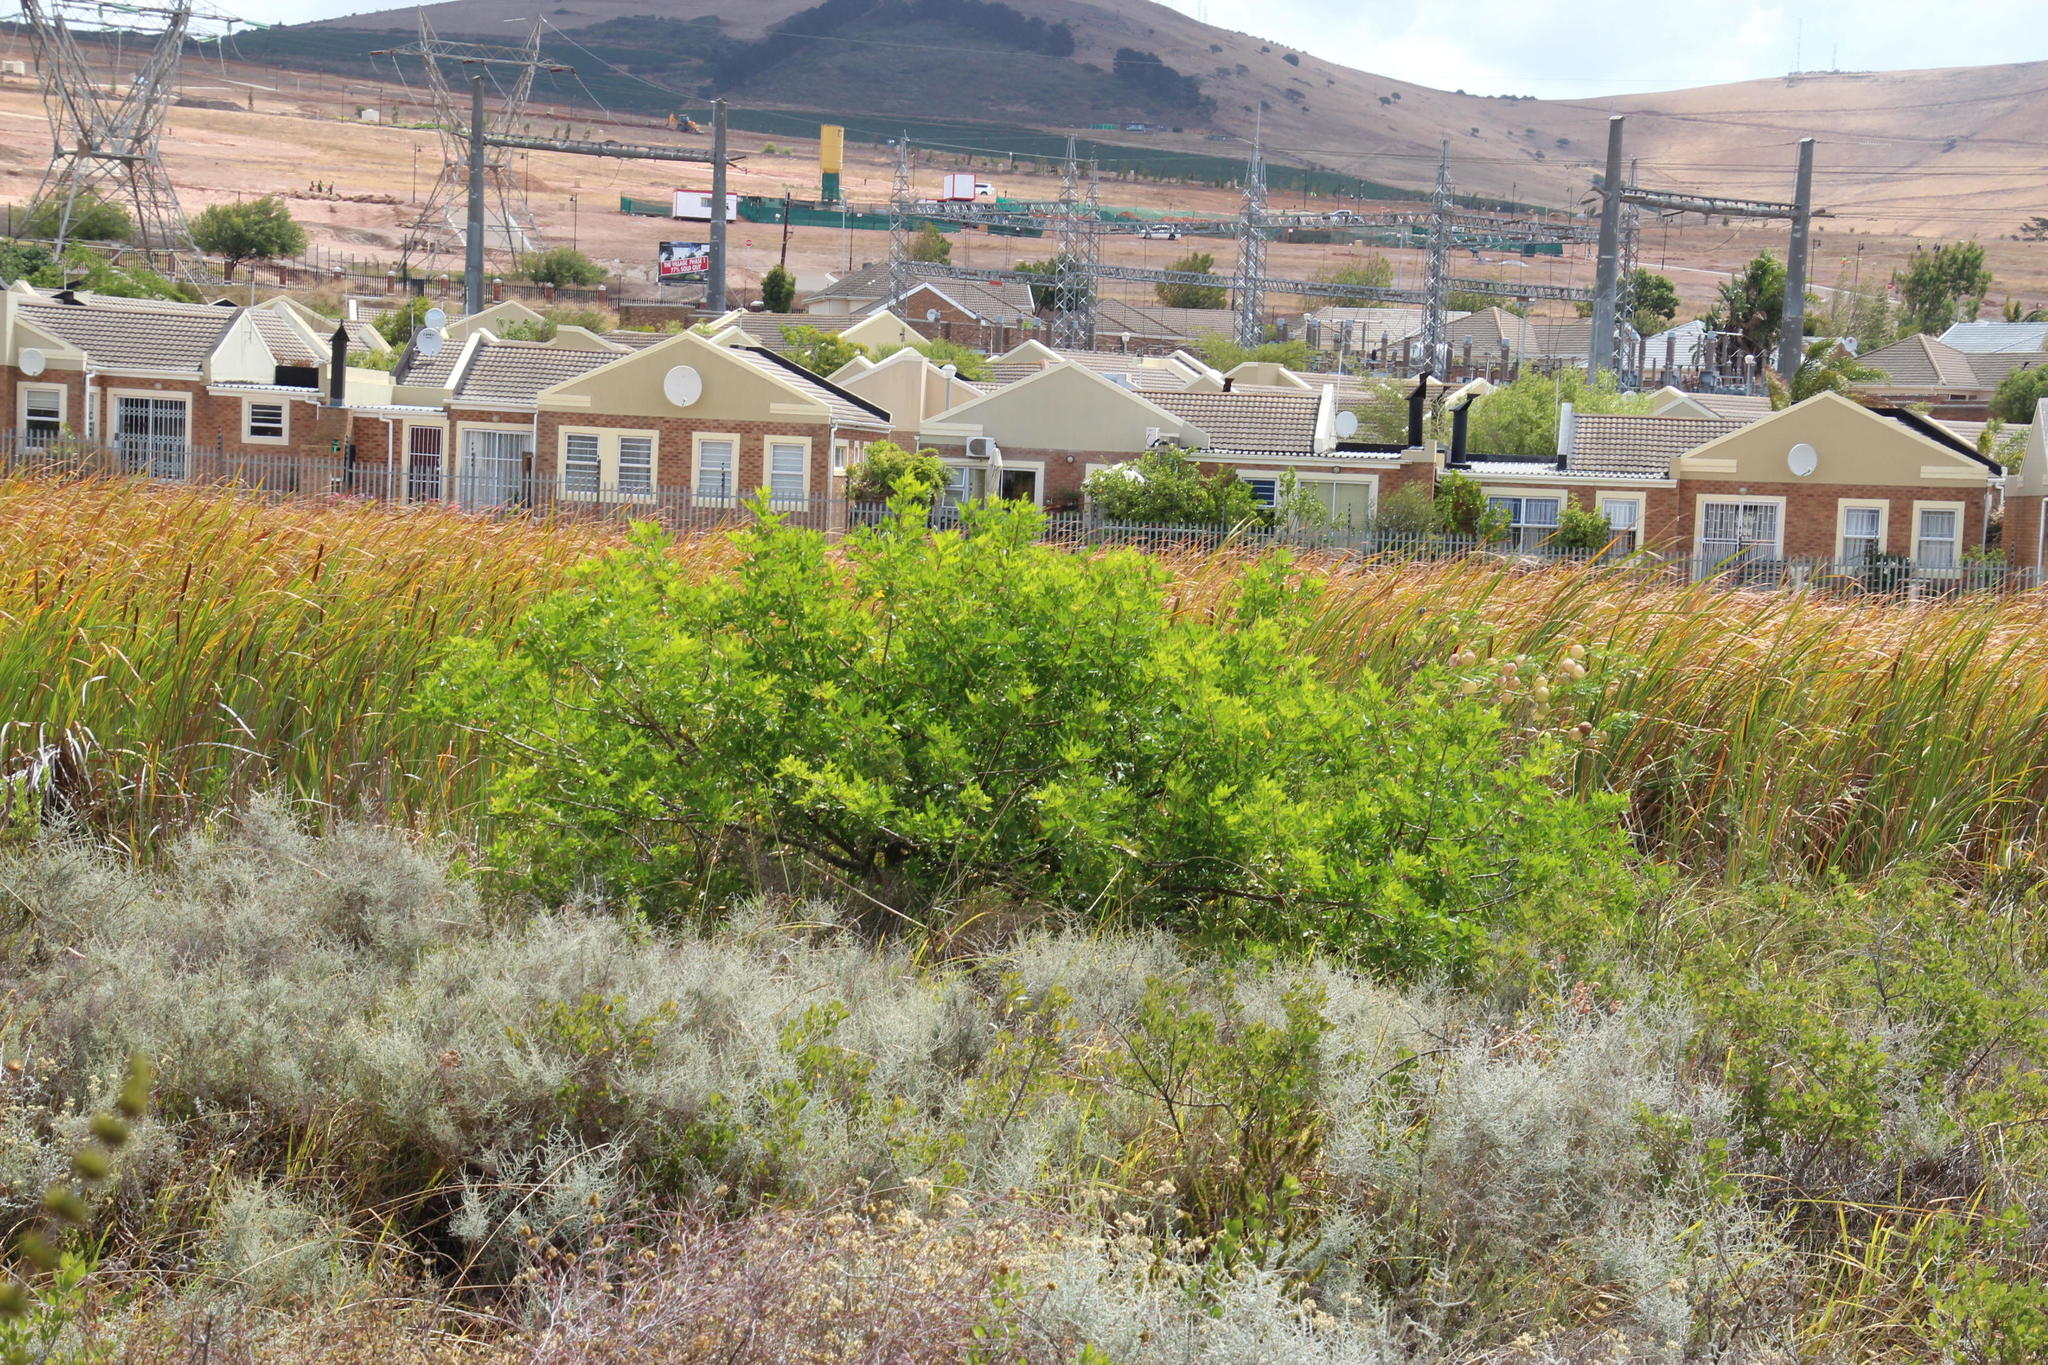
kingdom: Plantae
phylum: Tracheophyta
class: Magnoliopsida
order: Sapindales
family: Anacardiaceae
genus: Schinus
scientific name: Schinus terebinthifolia
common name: Brazilian peppertree
